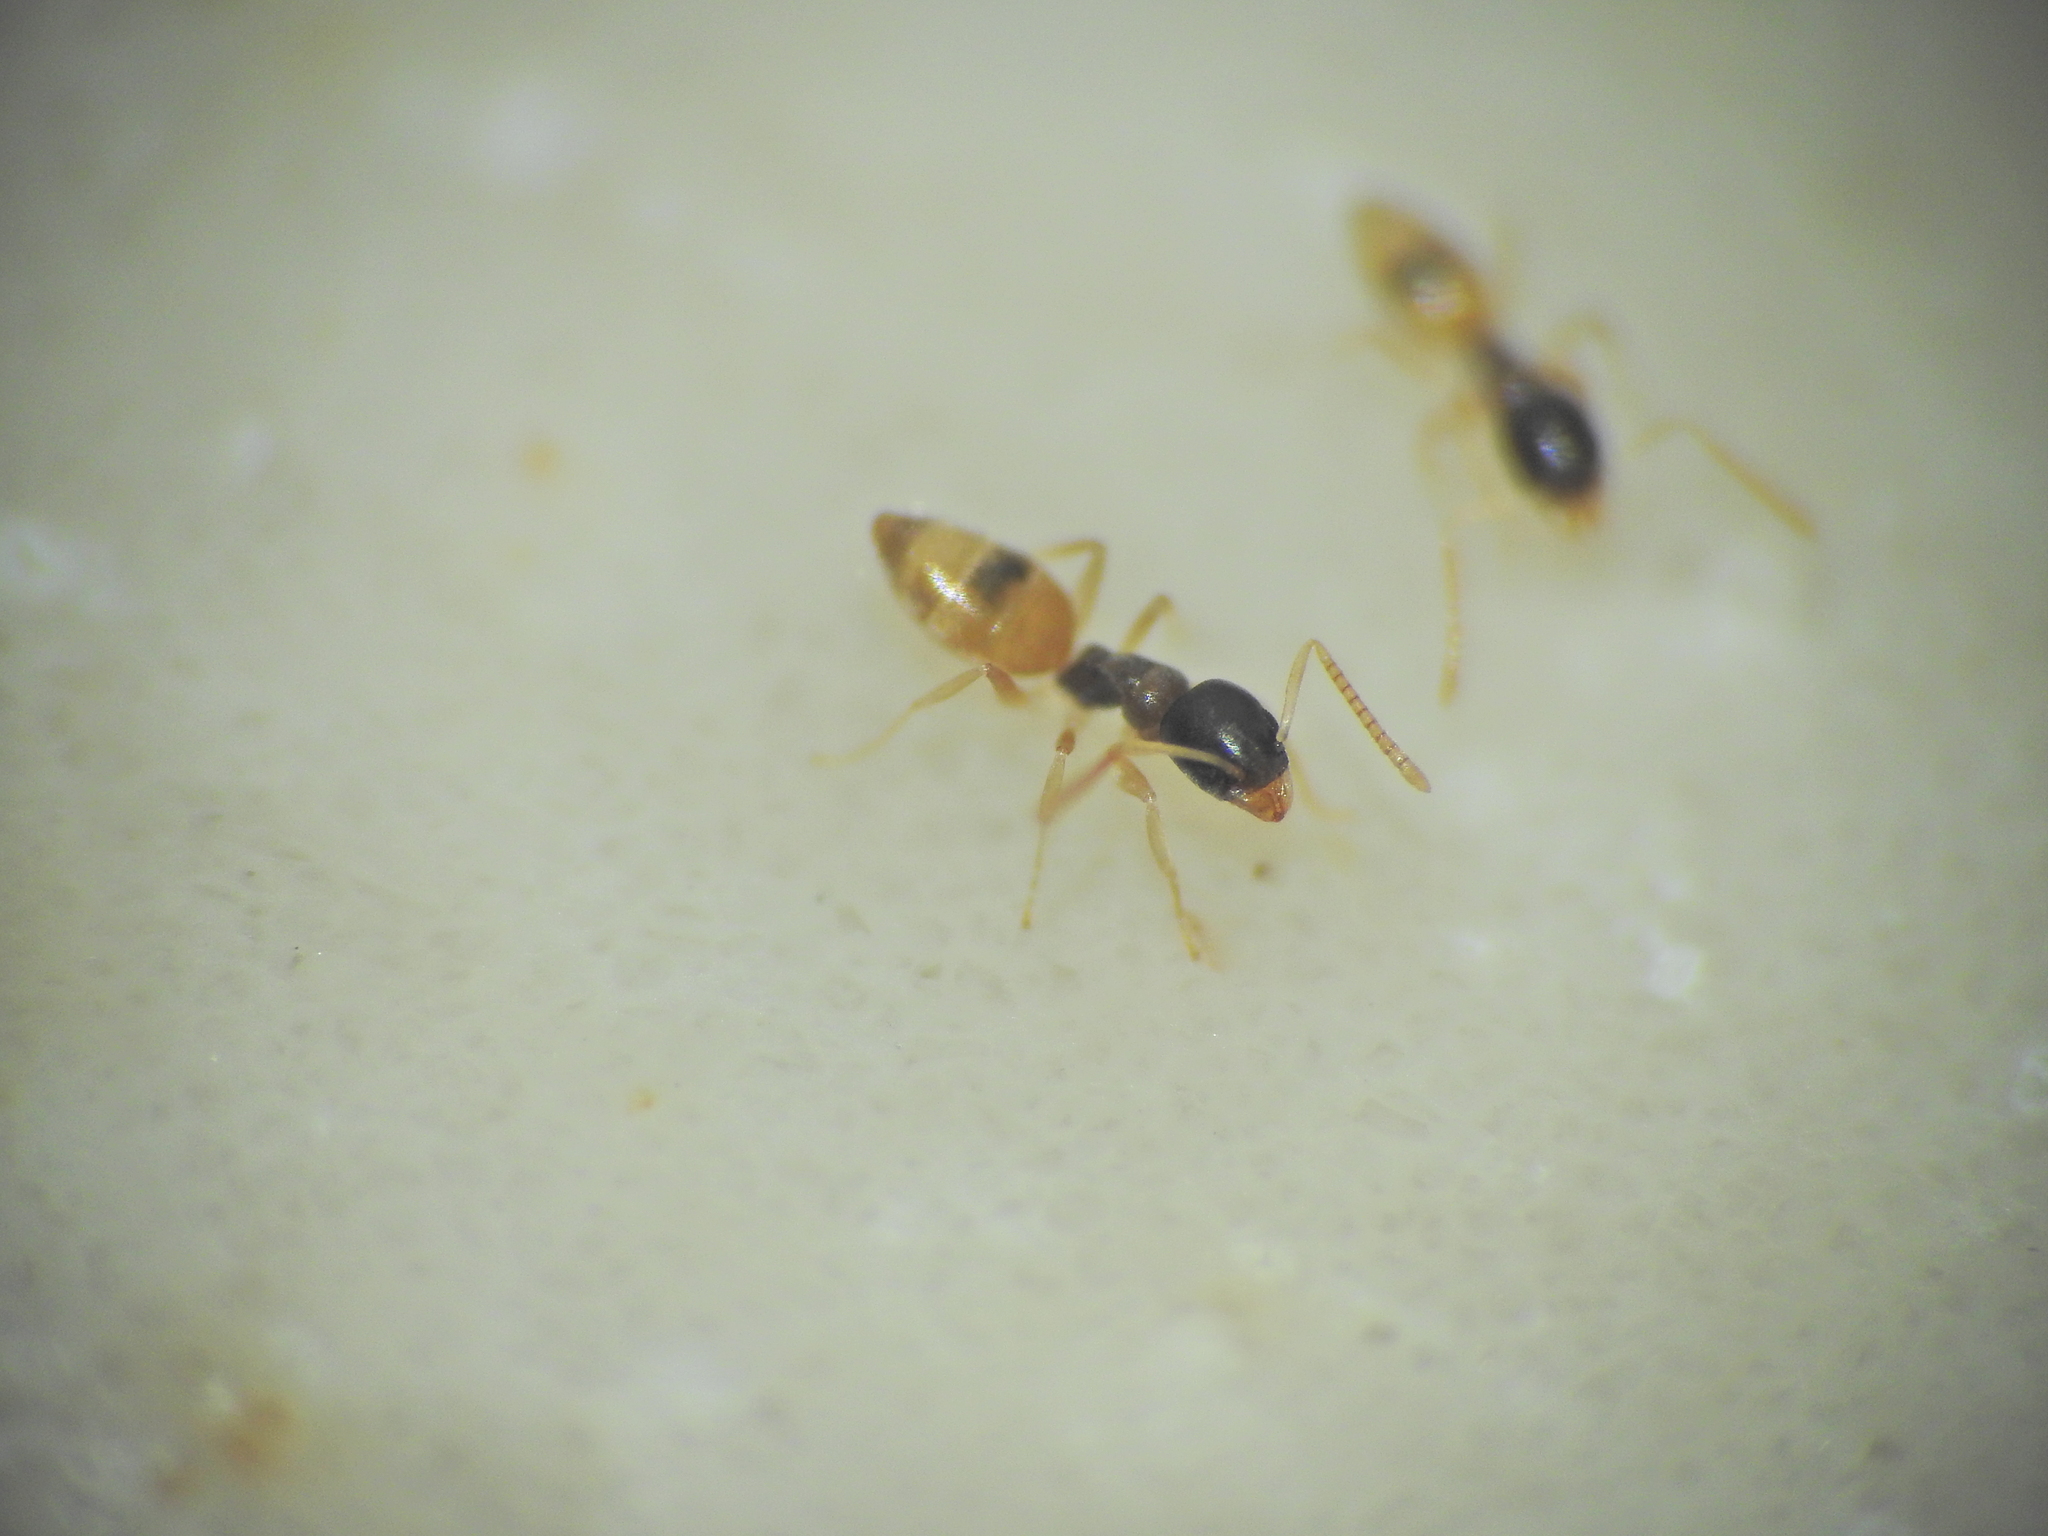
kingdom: Animalia
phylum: Arthropoda
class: Insecta
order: Hymenoptera
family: Formicidae
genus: Tapinoma
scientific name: Tapinoma melanocephalum
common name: Ghost ant
